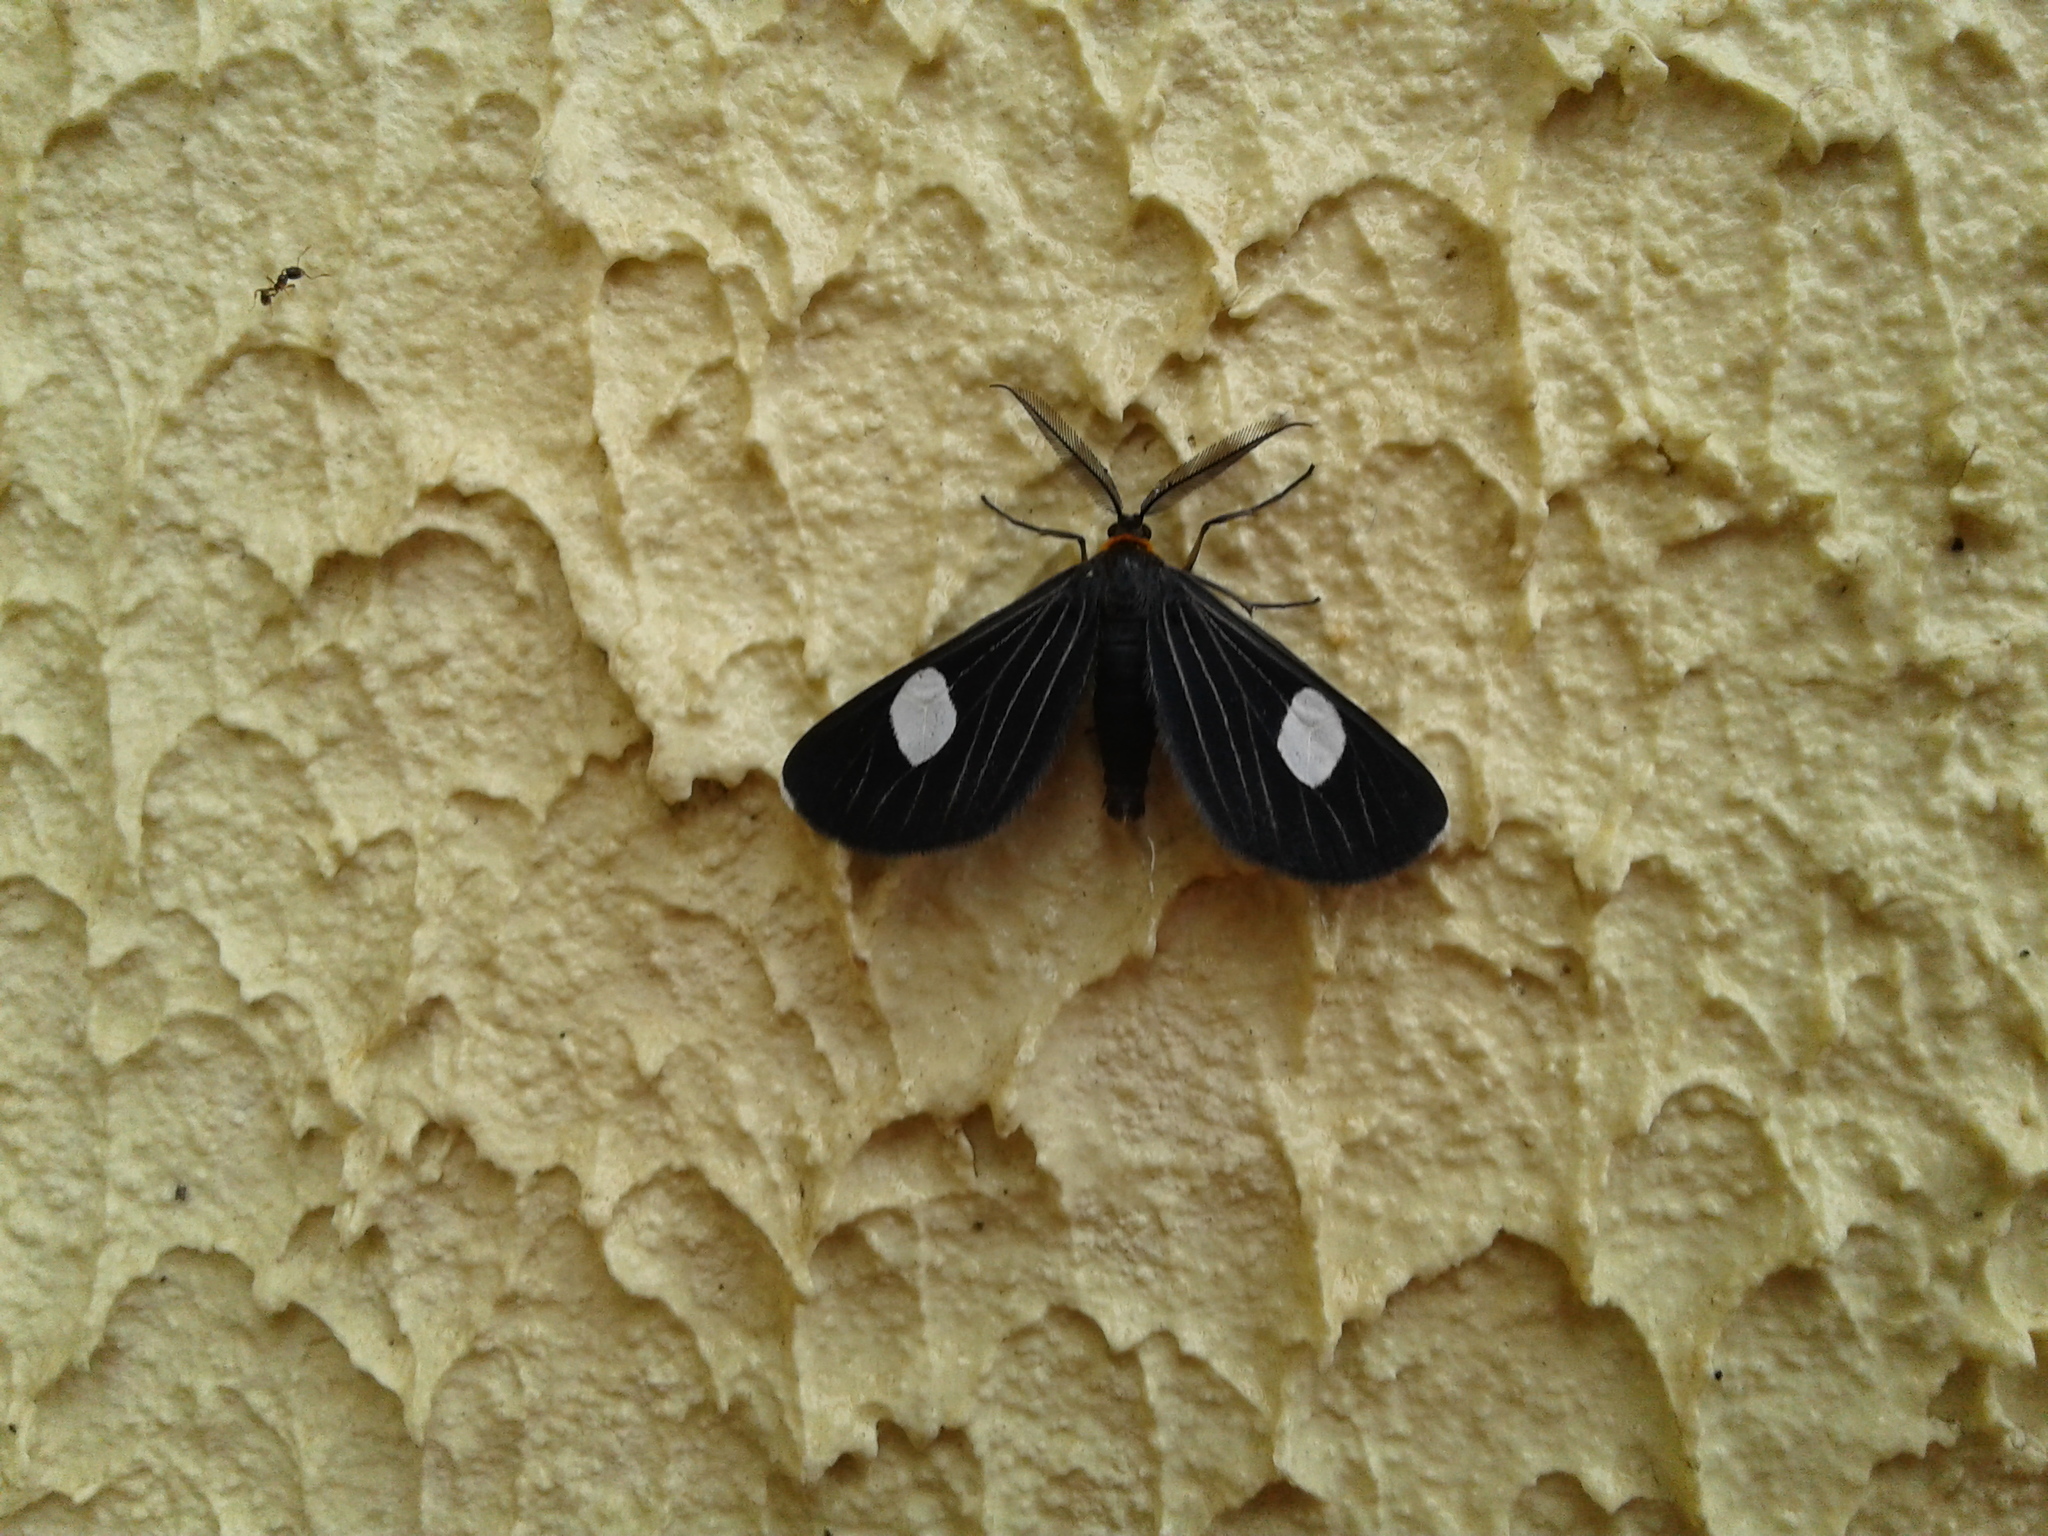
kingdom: Animalia
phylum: Arthropoda
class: Insecta
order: Lepidoptera
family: Geometridae
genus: Melanchroia
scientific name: Melanchroia aterea
